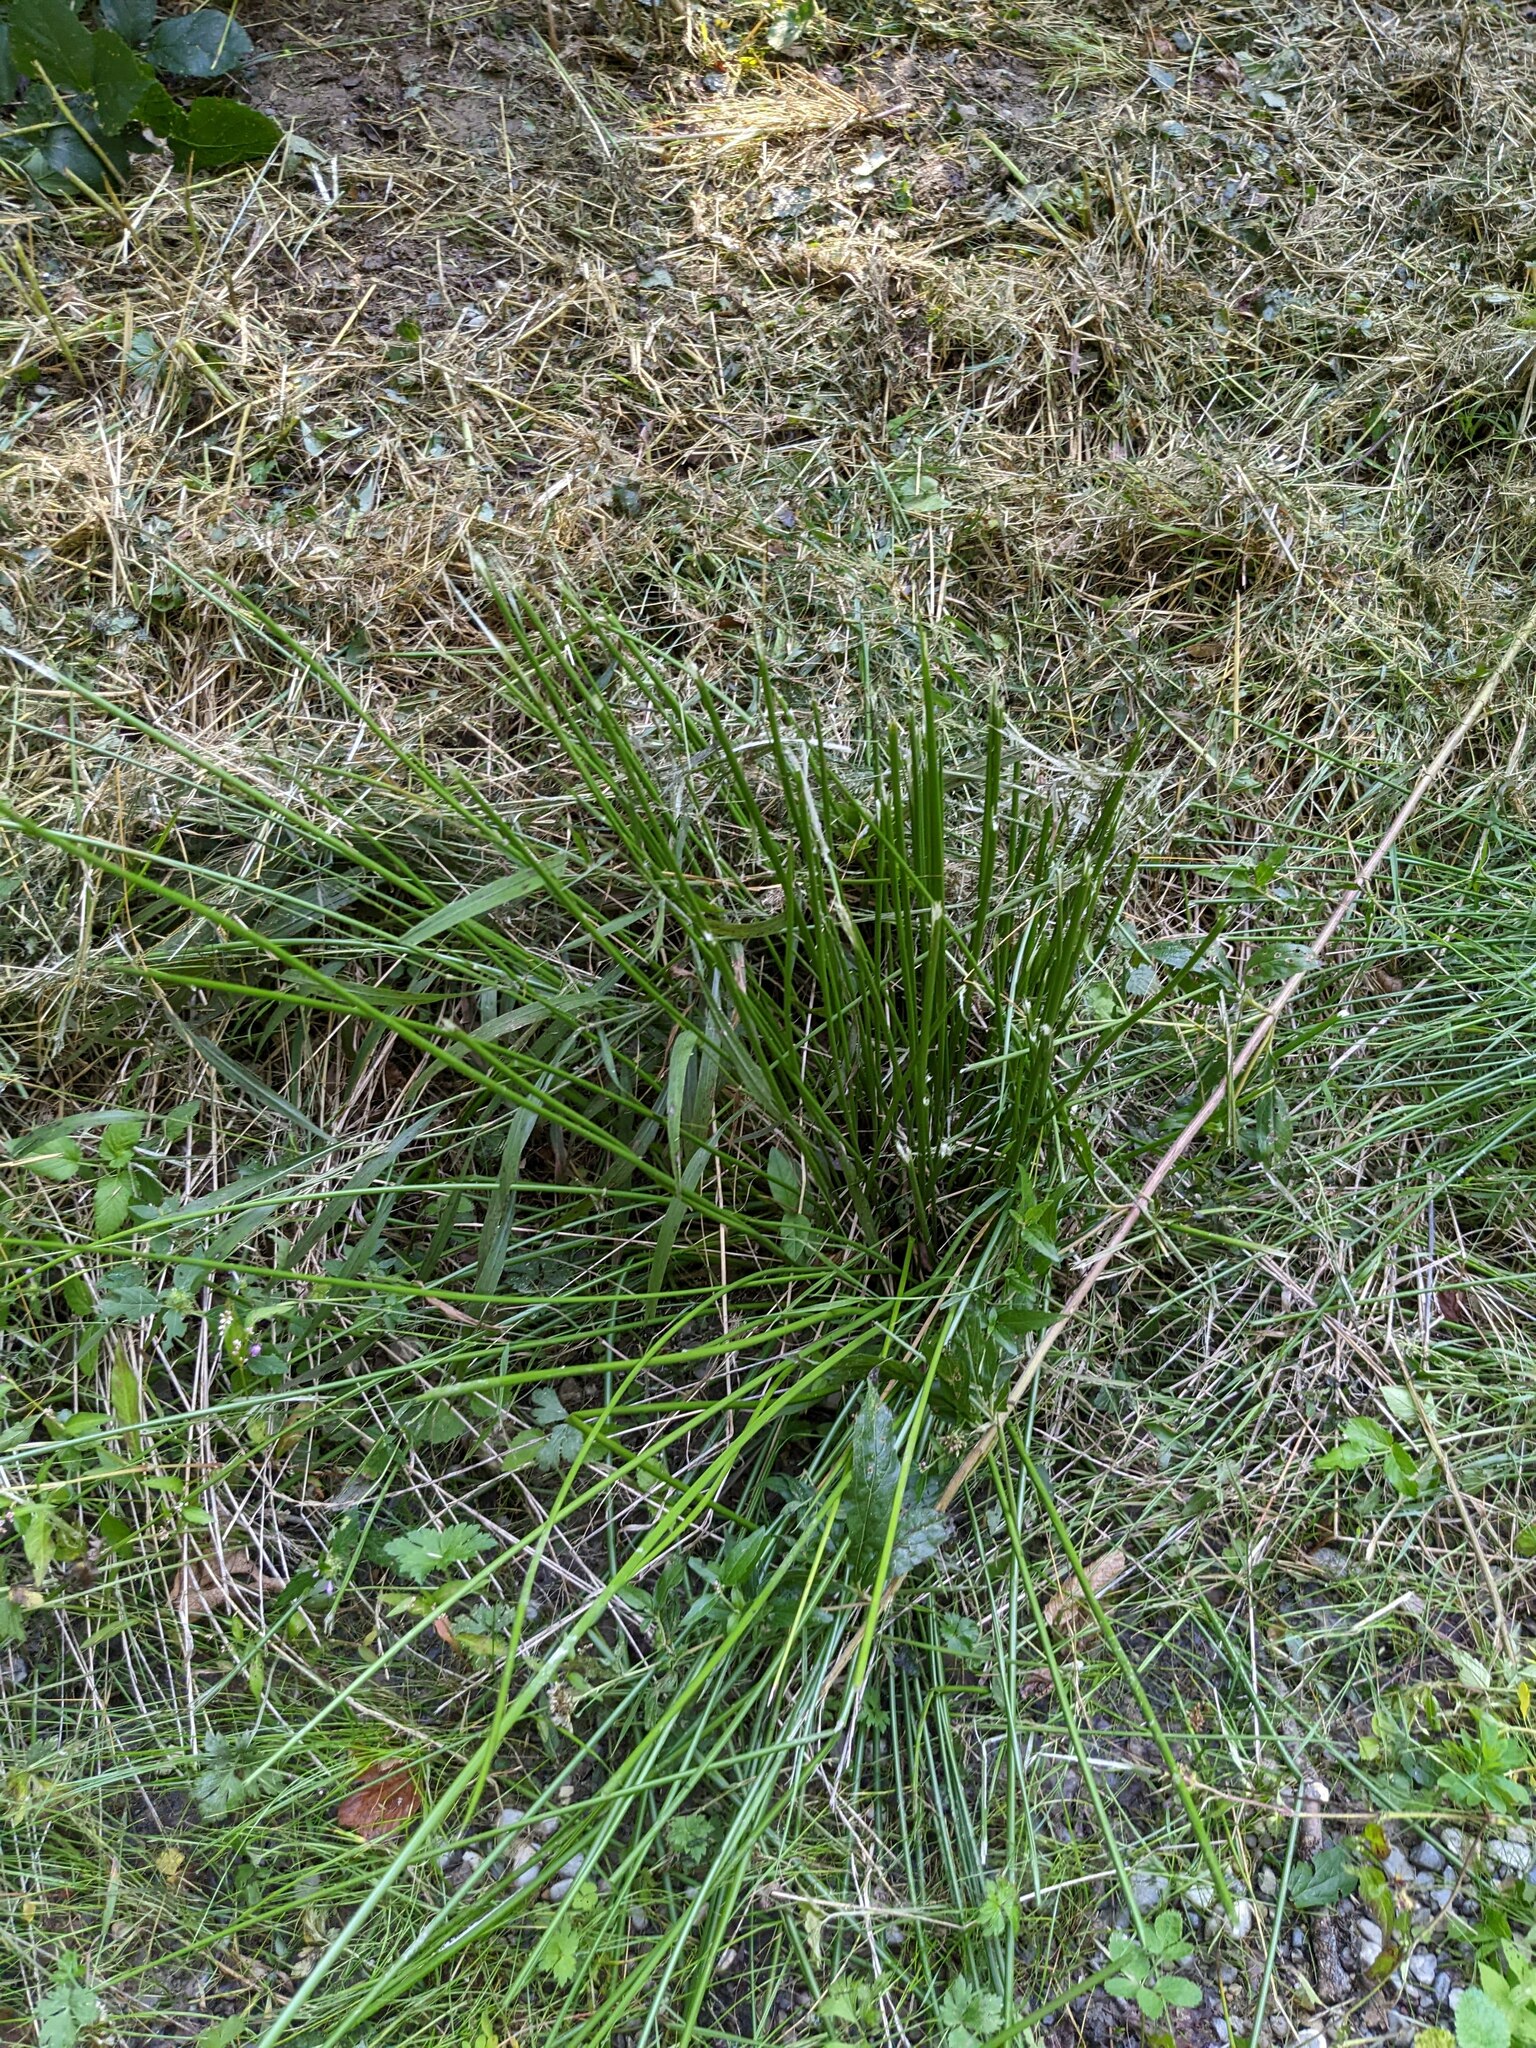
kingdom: Plantae
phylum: Tracheophyta
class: Liliopsida
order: Poales
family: Juncaceae
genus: Juncus
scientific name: Juncus effusus
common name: Soft rush
